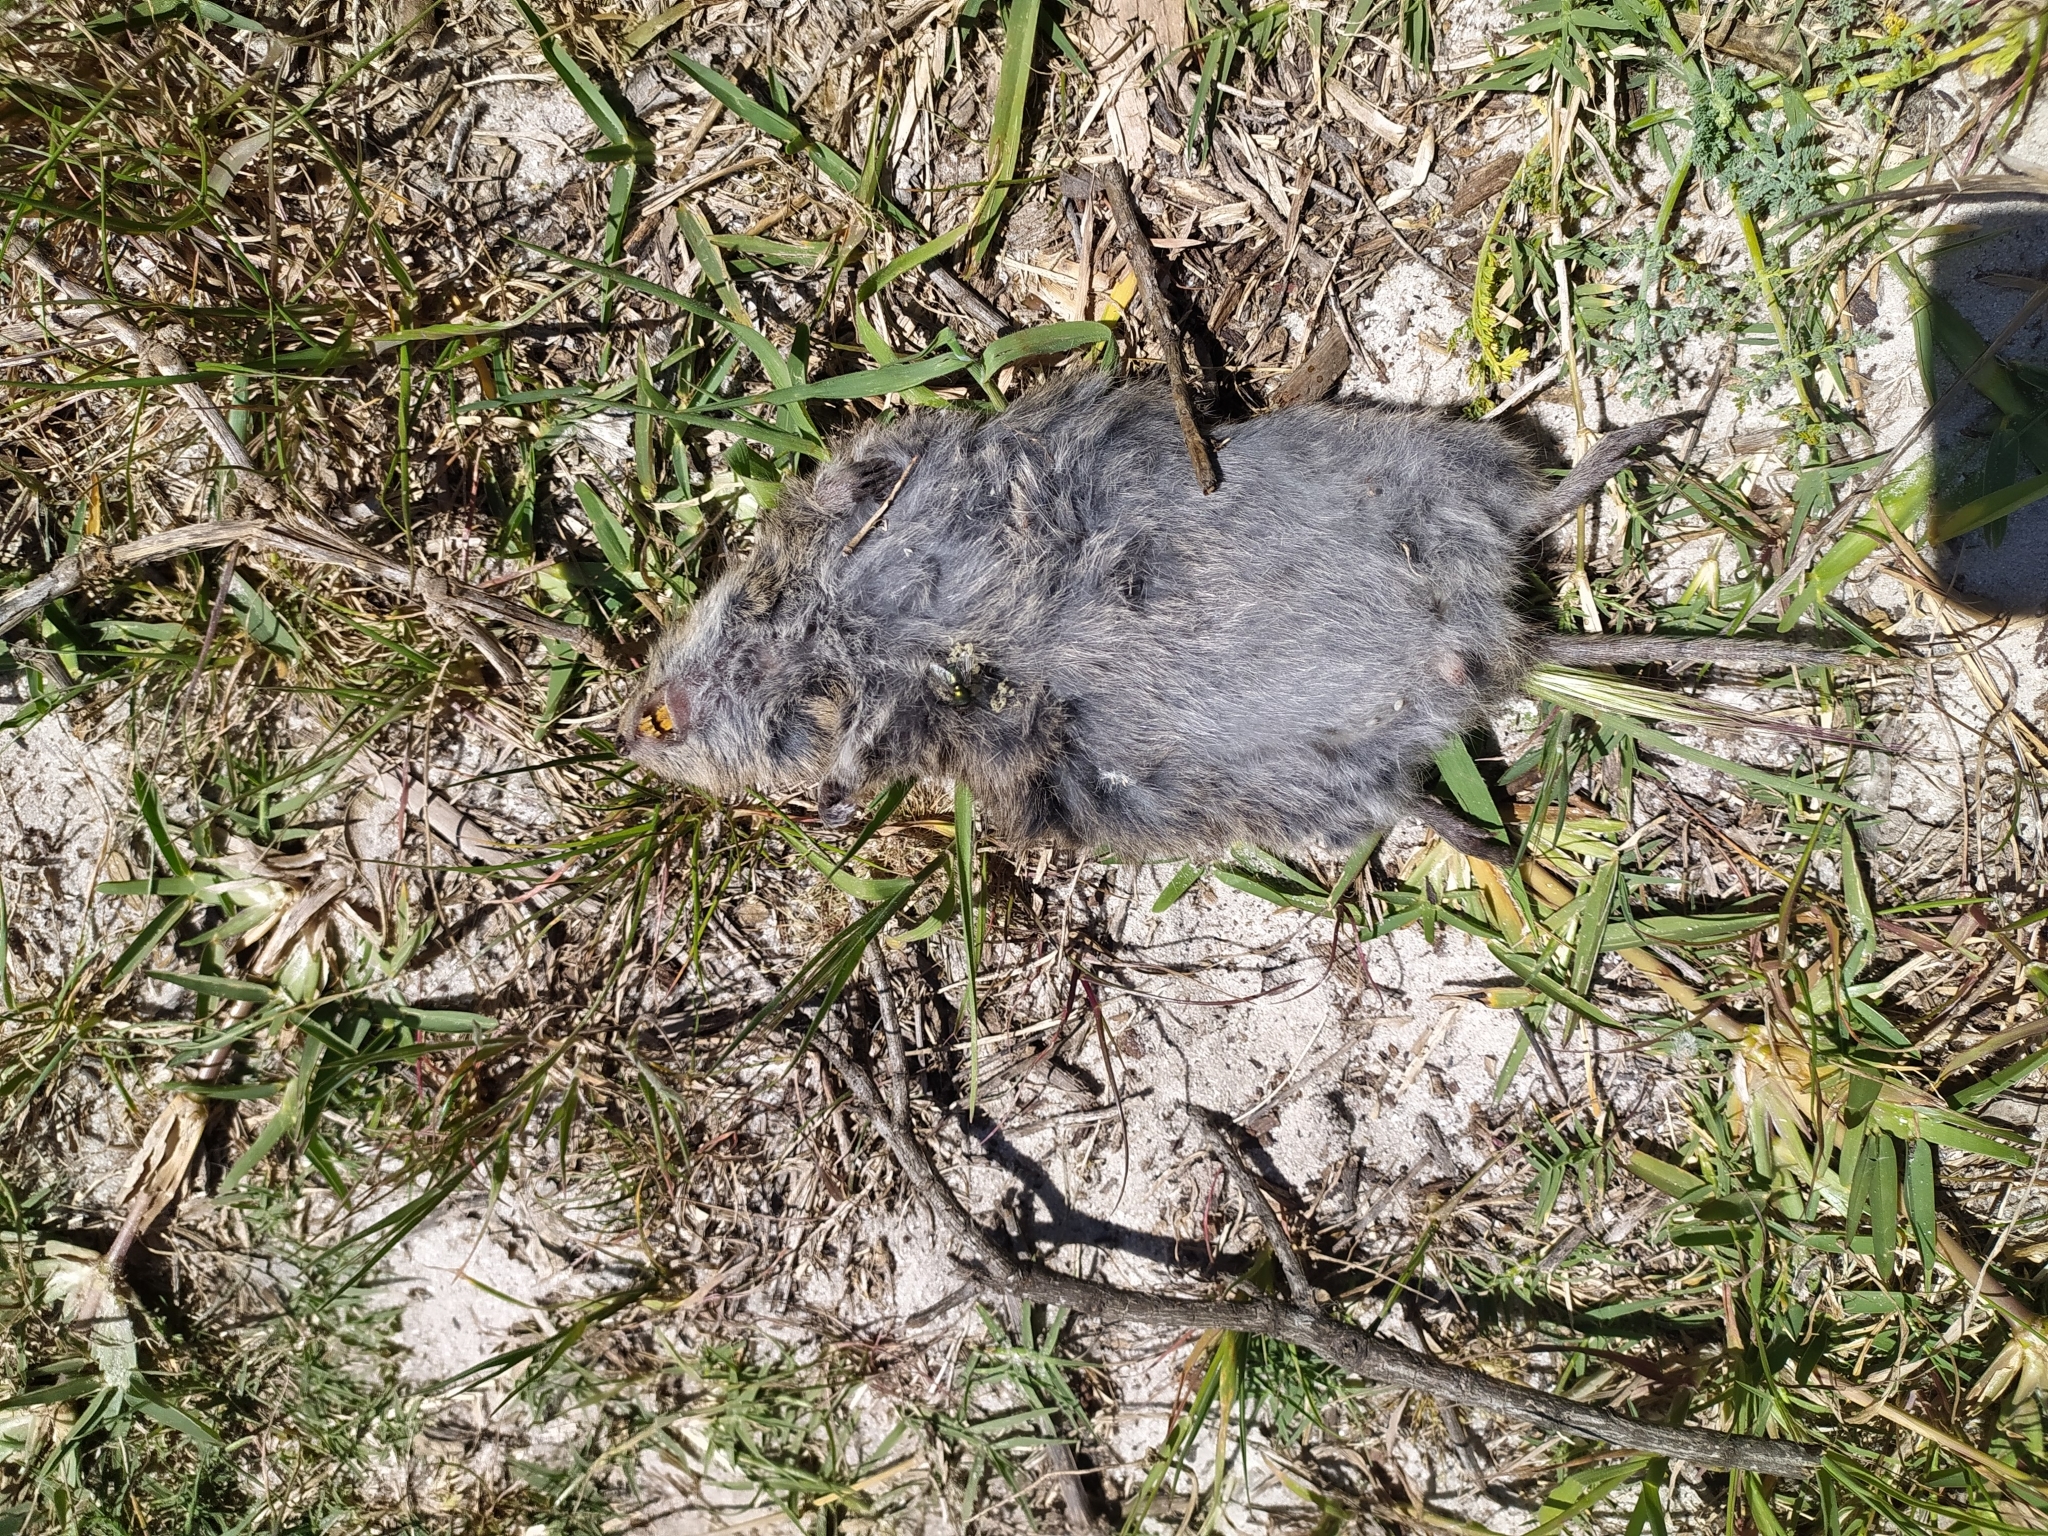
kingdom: Animalia
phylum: Chordata
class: Mammalia
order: Rodentia
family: Muridae
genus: Otomys
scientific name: Otomys irroratus
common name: Southern african vlei rat
